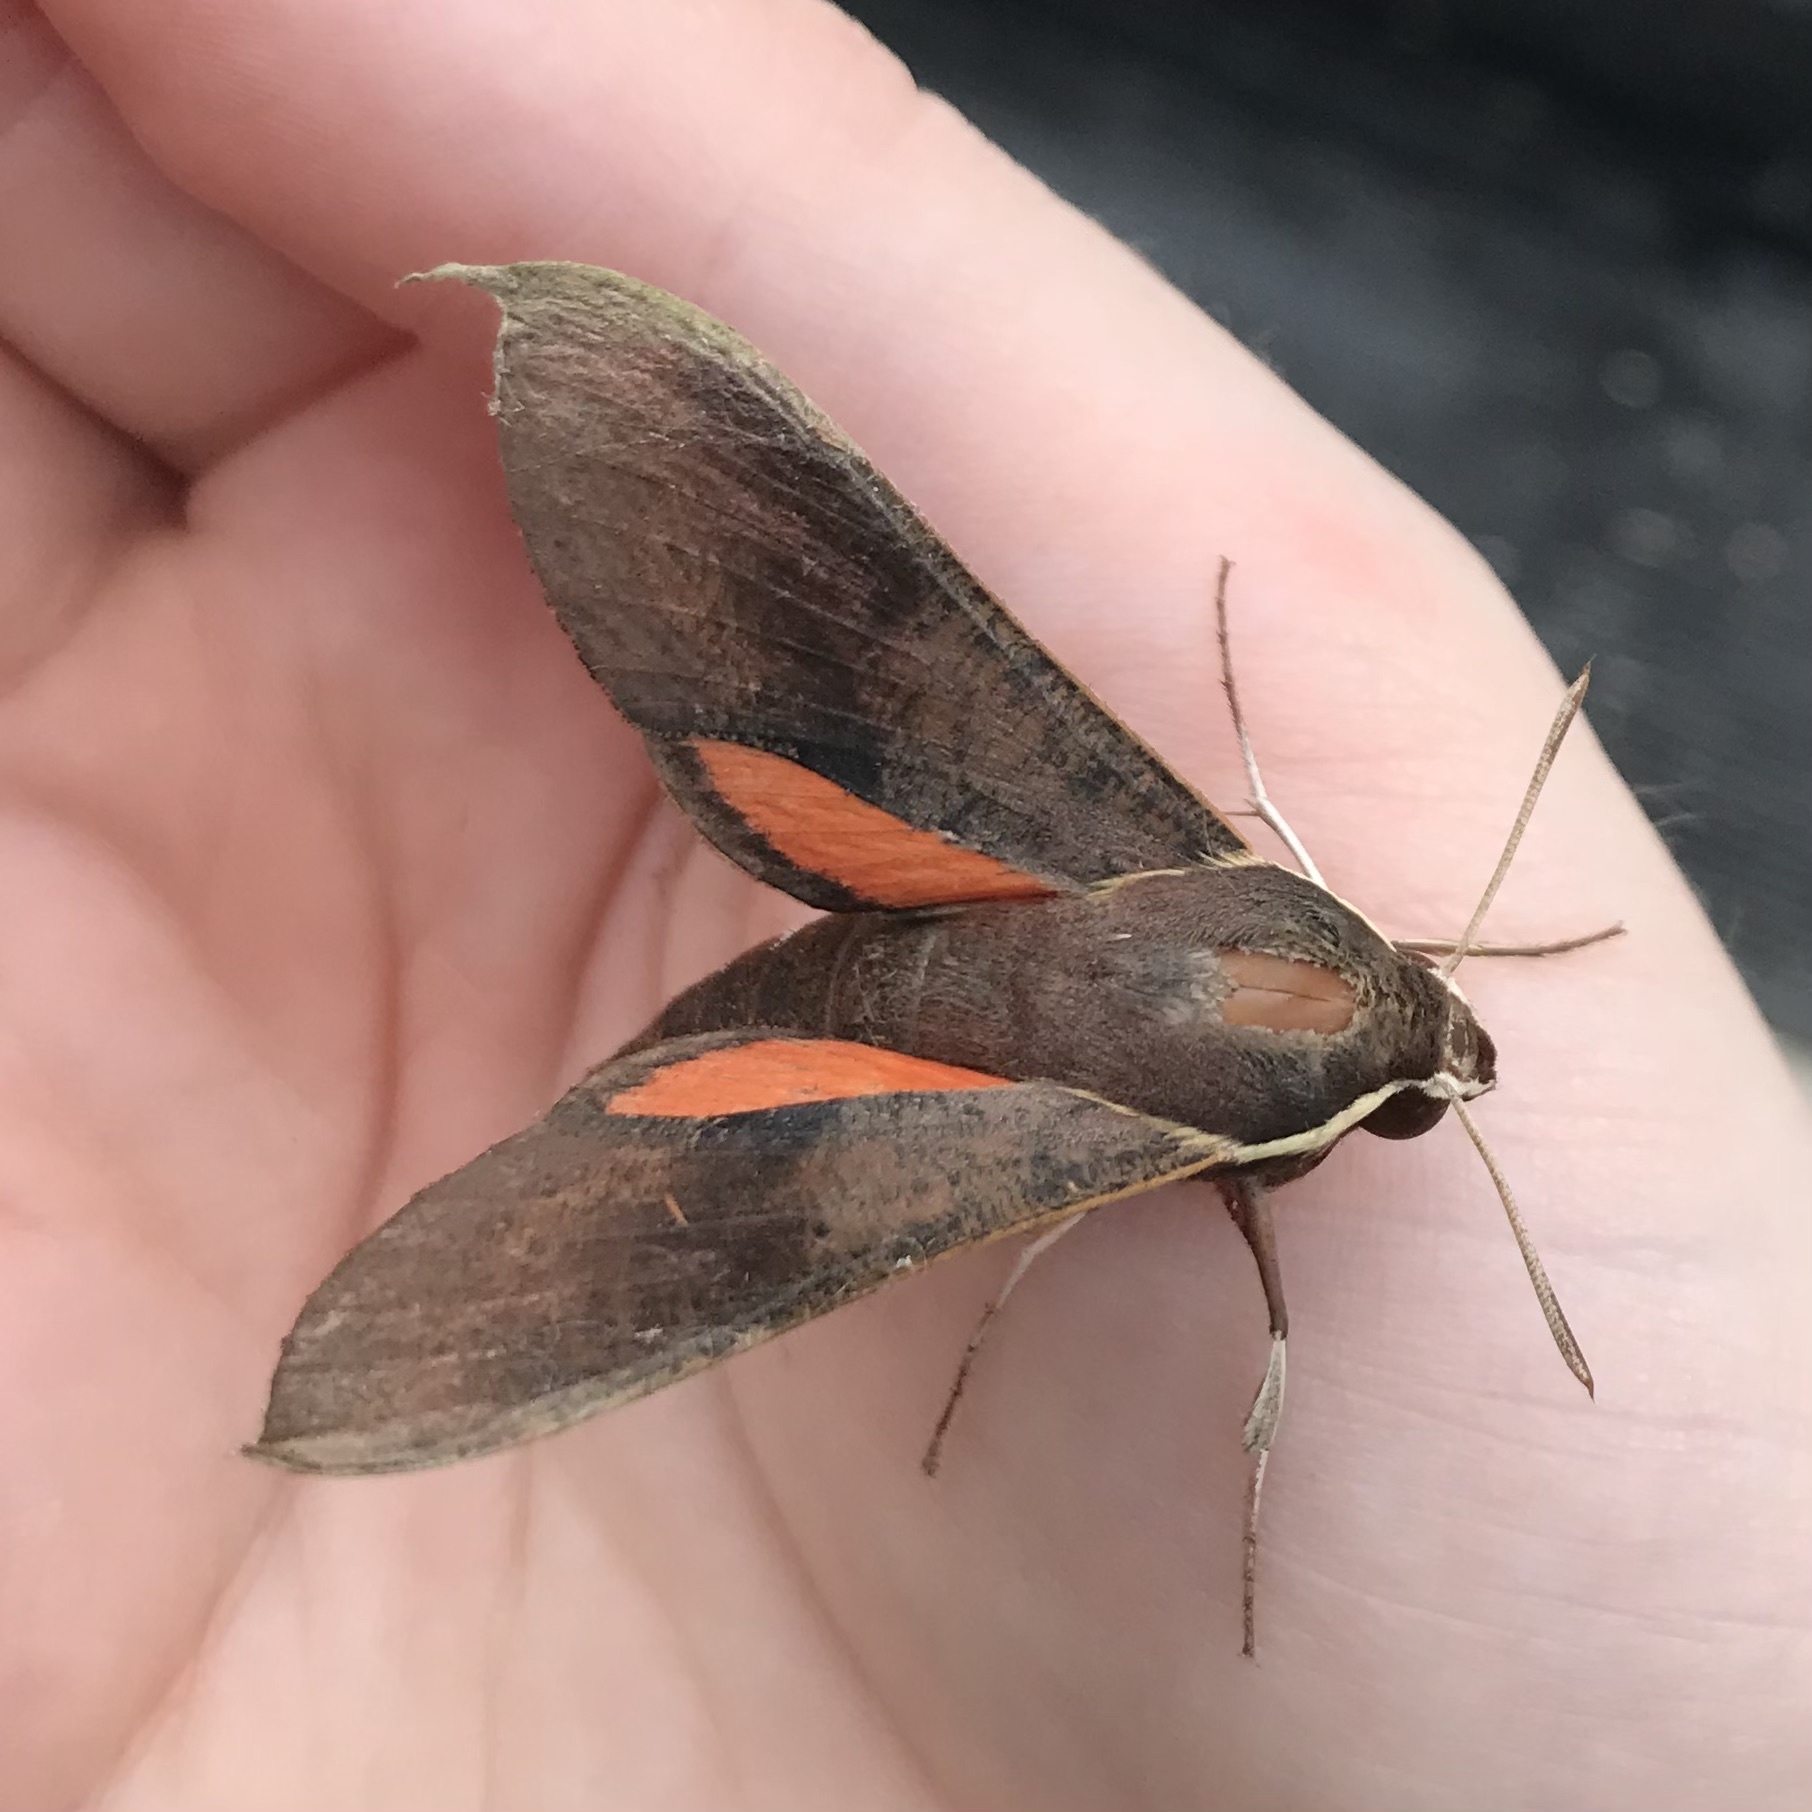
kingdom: Animalia
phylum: Arthropoda
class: Insecta
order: Lepidoptera
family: Sphingidae
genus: Hippotion
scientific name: Hippotion scrofa
